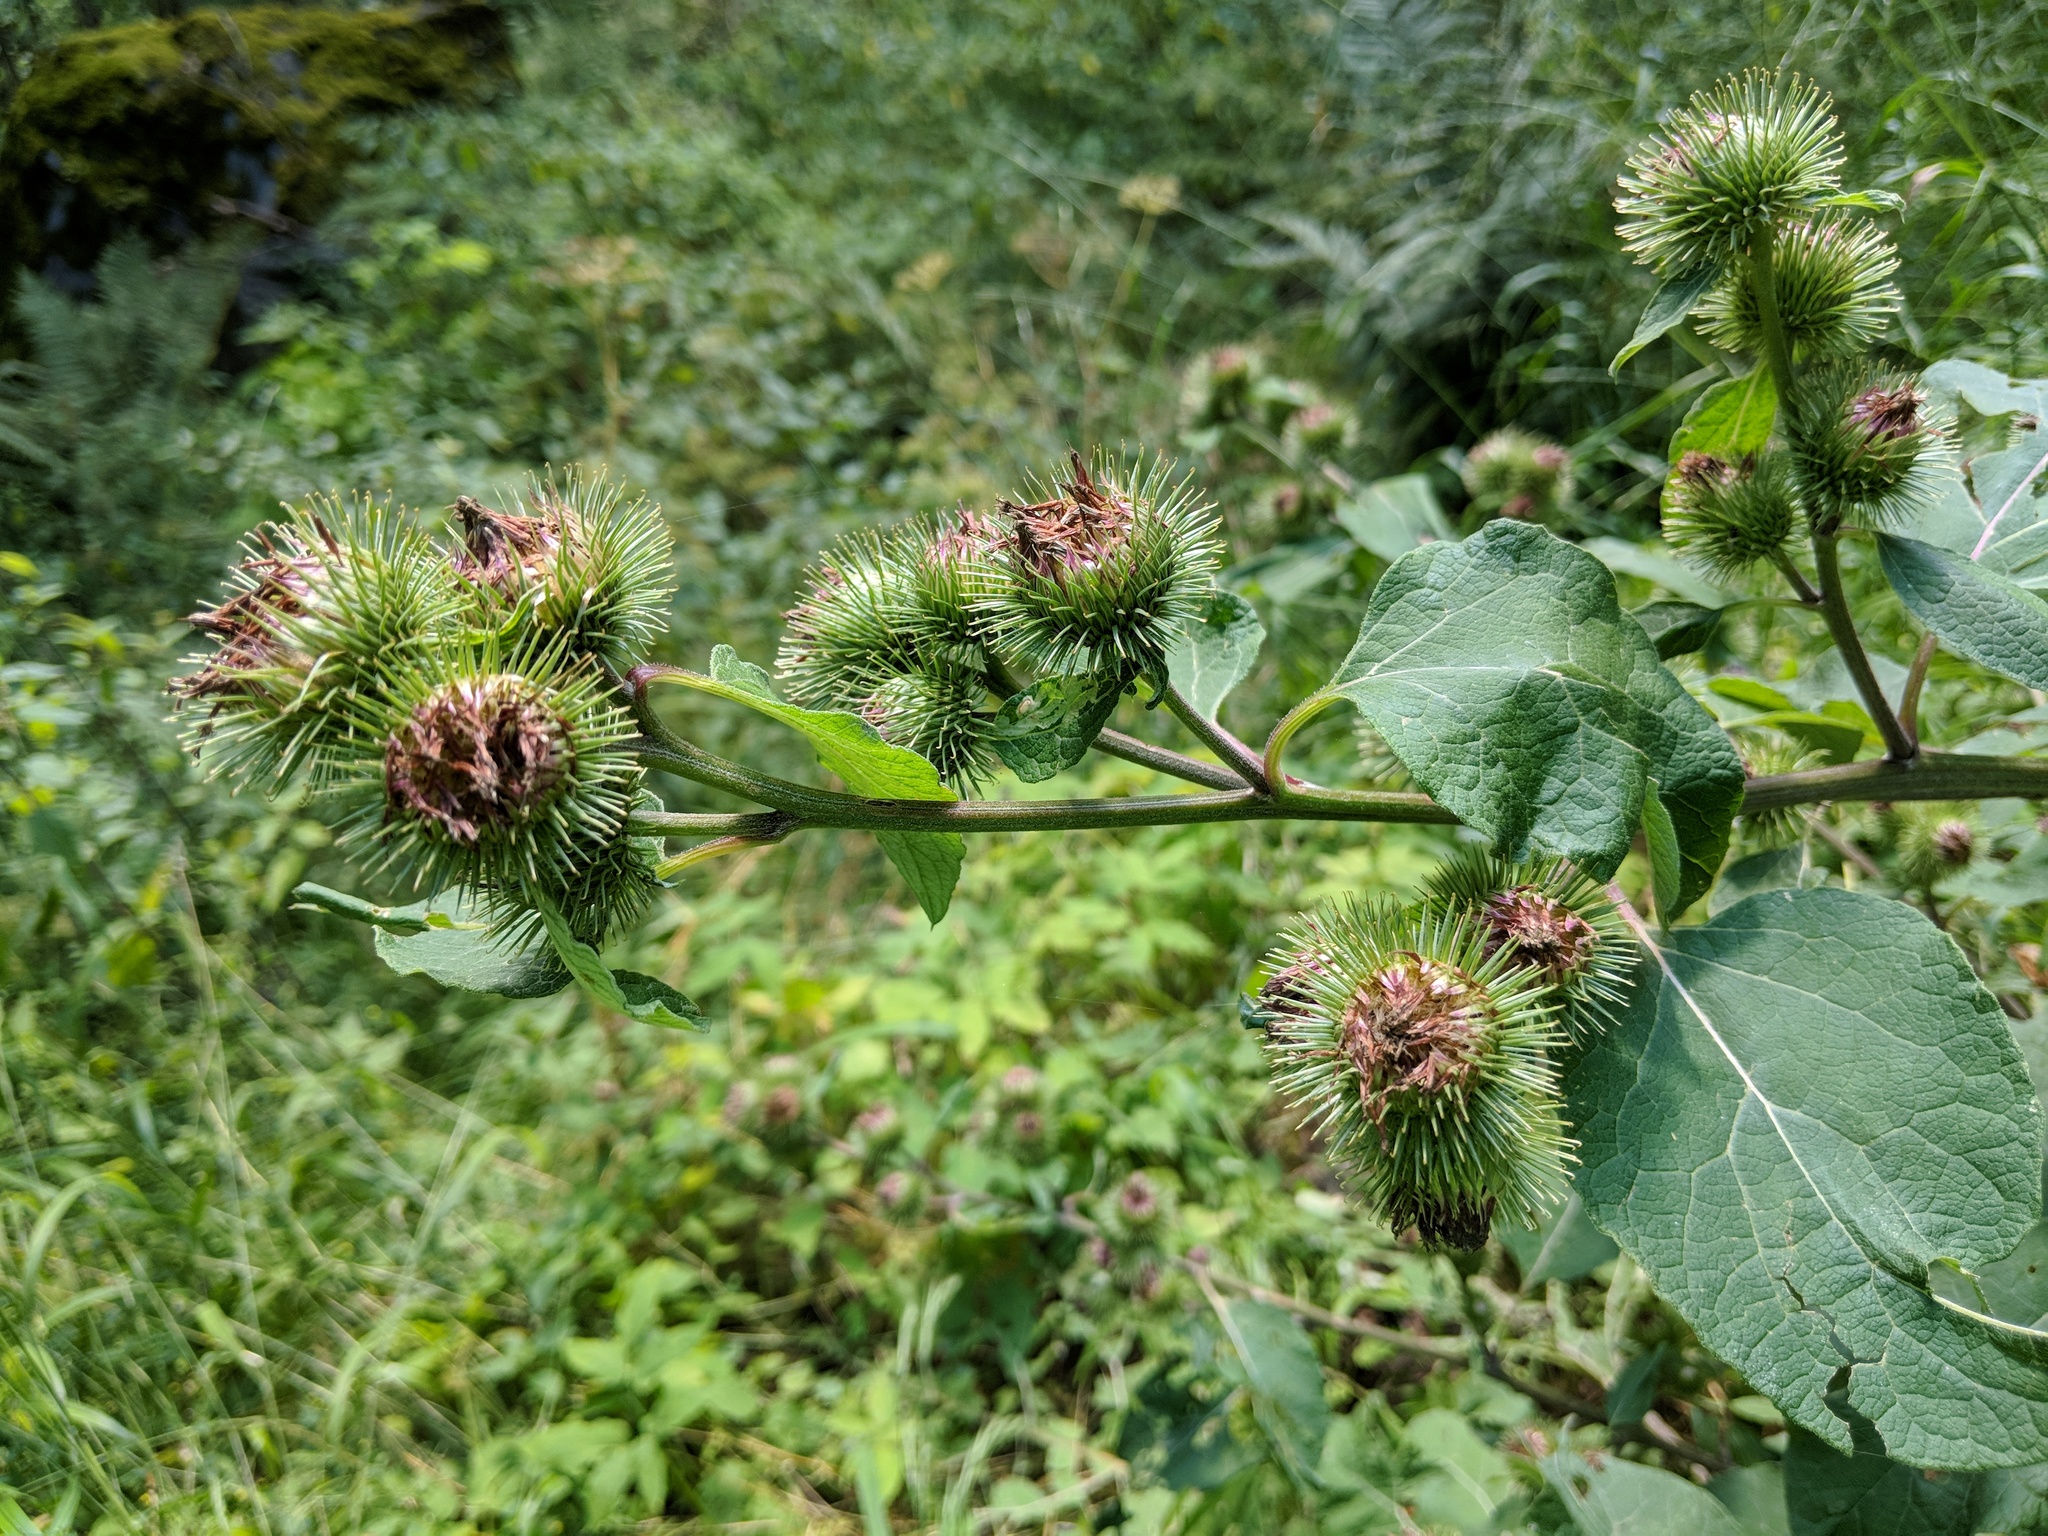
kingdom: Plantae
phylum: Tracheophyta
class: Magnoliopsida
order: Asterales
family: Asteraceae
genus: Arctium
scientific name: Arctium nemorosum
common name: Wood burdock
